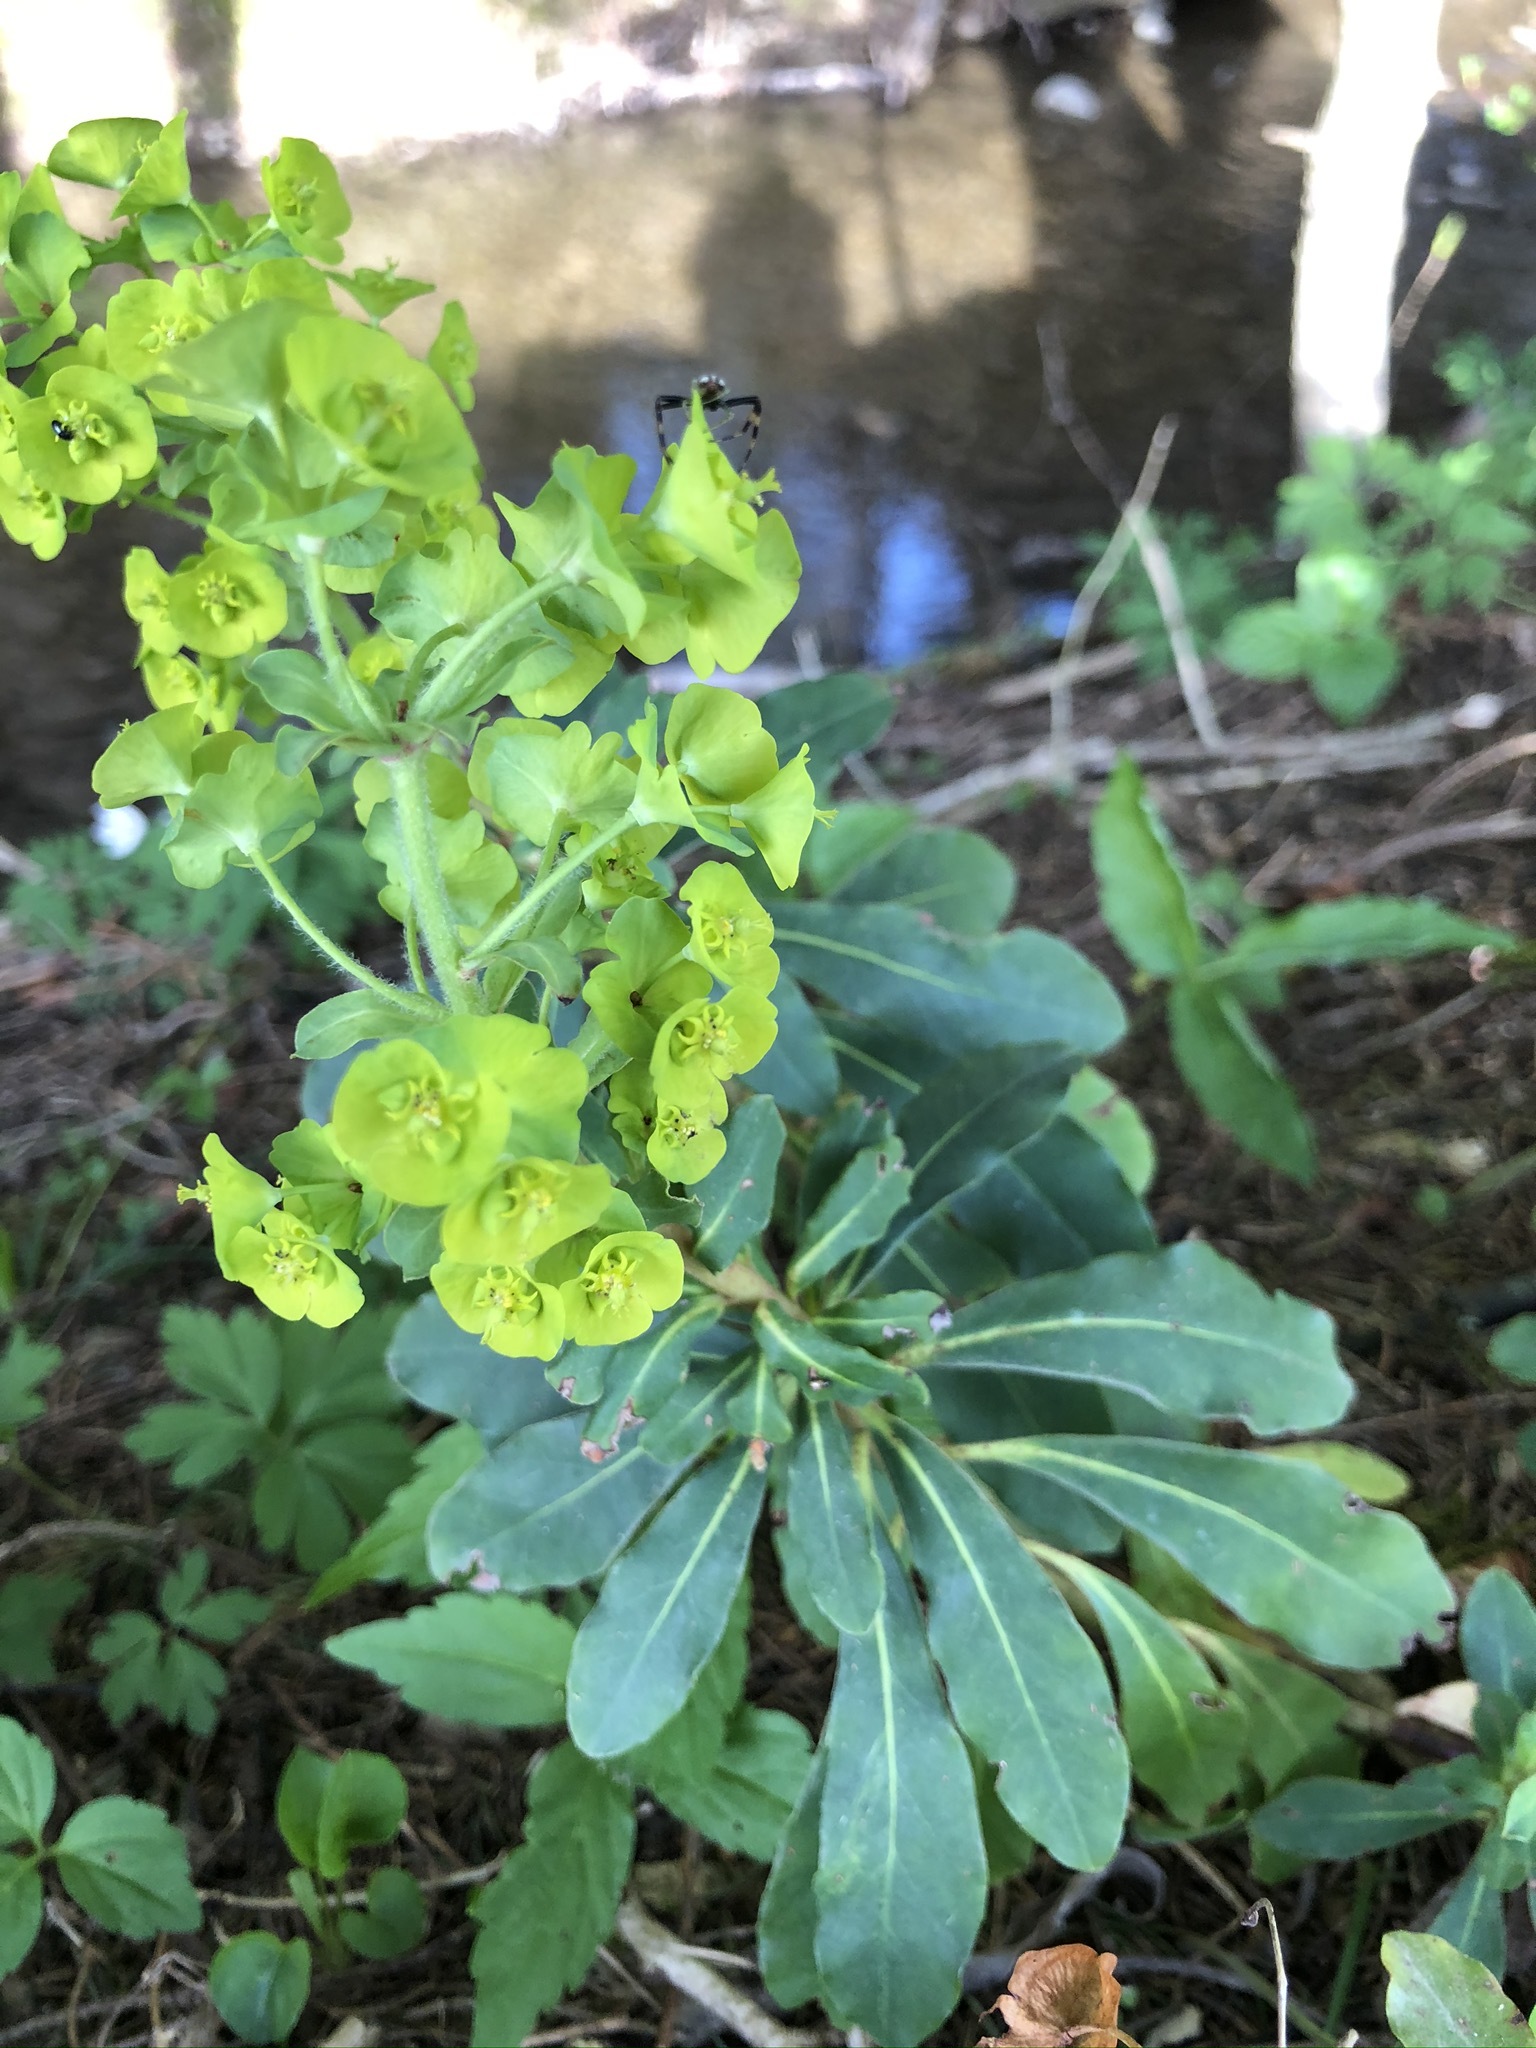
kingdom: Plantae
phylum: Tracheophyta
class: Magnoliopsida
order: Malpighiales
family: Euphorbiaceae
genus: Euphorbia
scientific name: Euphorbia amygdaloides
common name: Wood spurge
